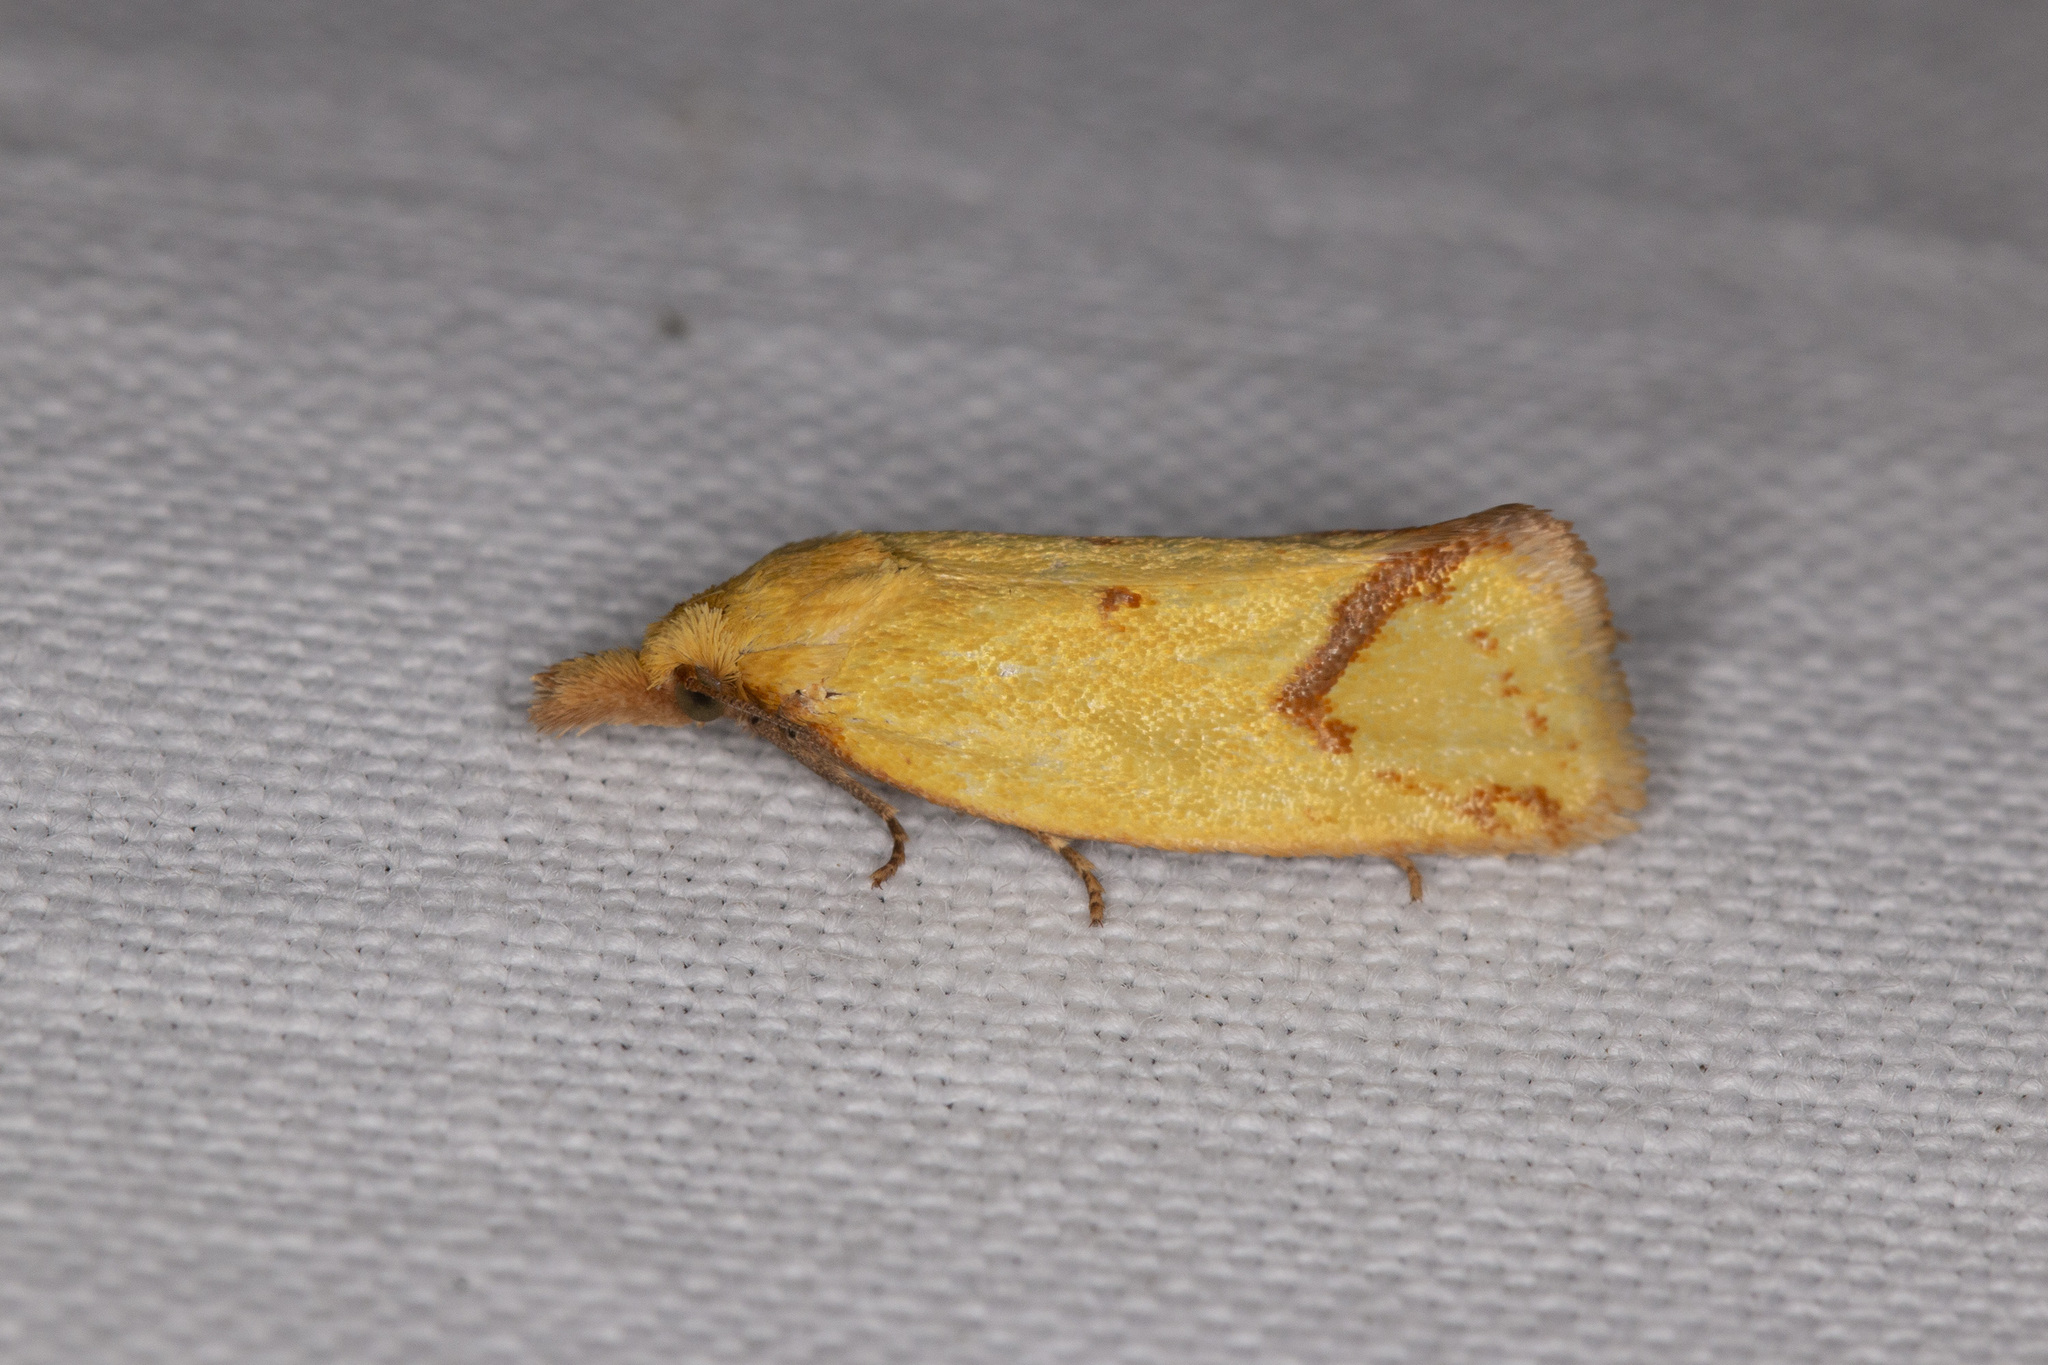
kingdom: Animalia
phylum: Arthropoda
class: Insecta
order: Lepidoptera
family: Tortricidae
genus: Agapeta
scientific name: Agapeta hamana
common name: Common yellow conch
